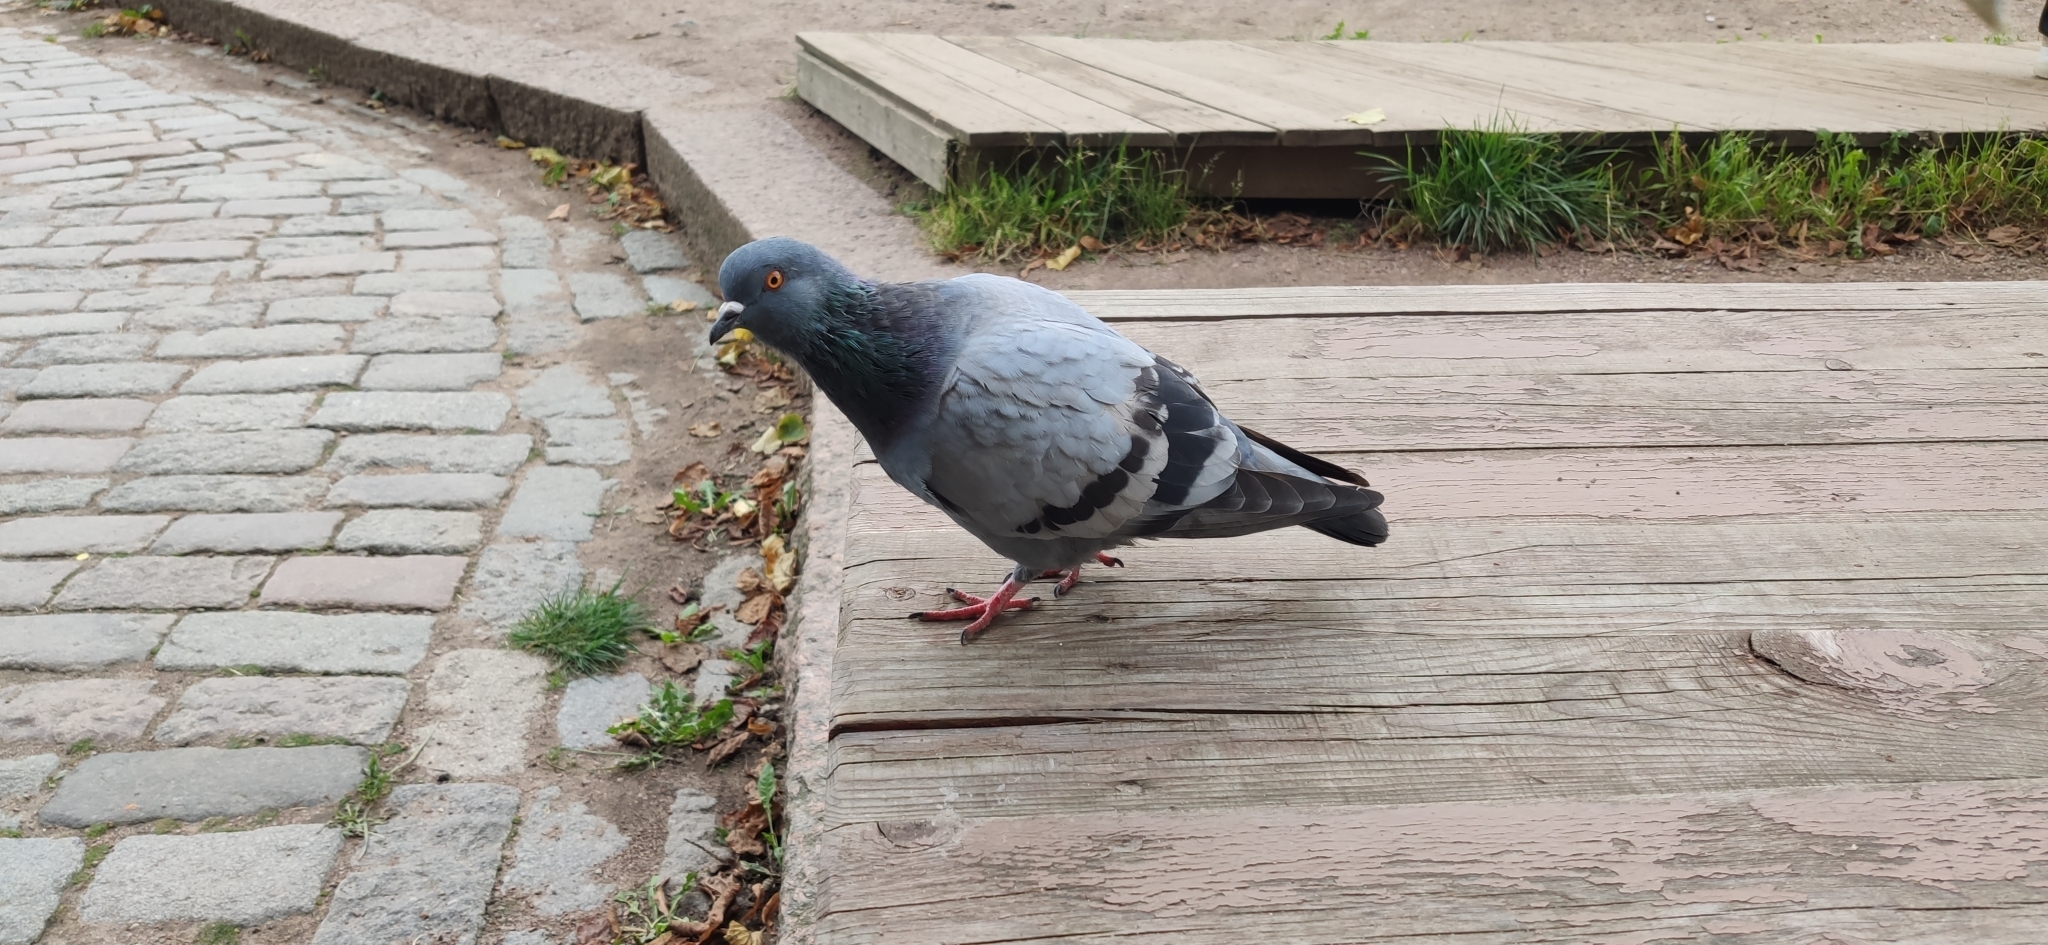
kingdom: Animalia
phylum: Chordata
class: Aves
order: Columbiformes
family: Columbidae
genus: Columba
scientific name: Columba livia
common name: Rock pigeon
